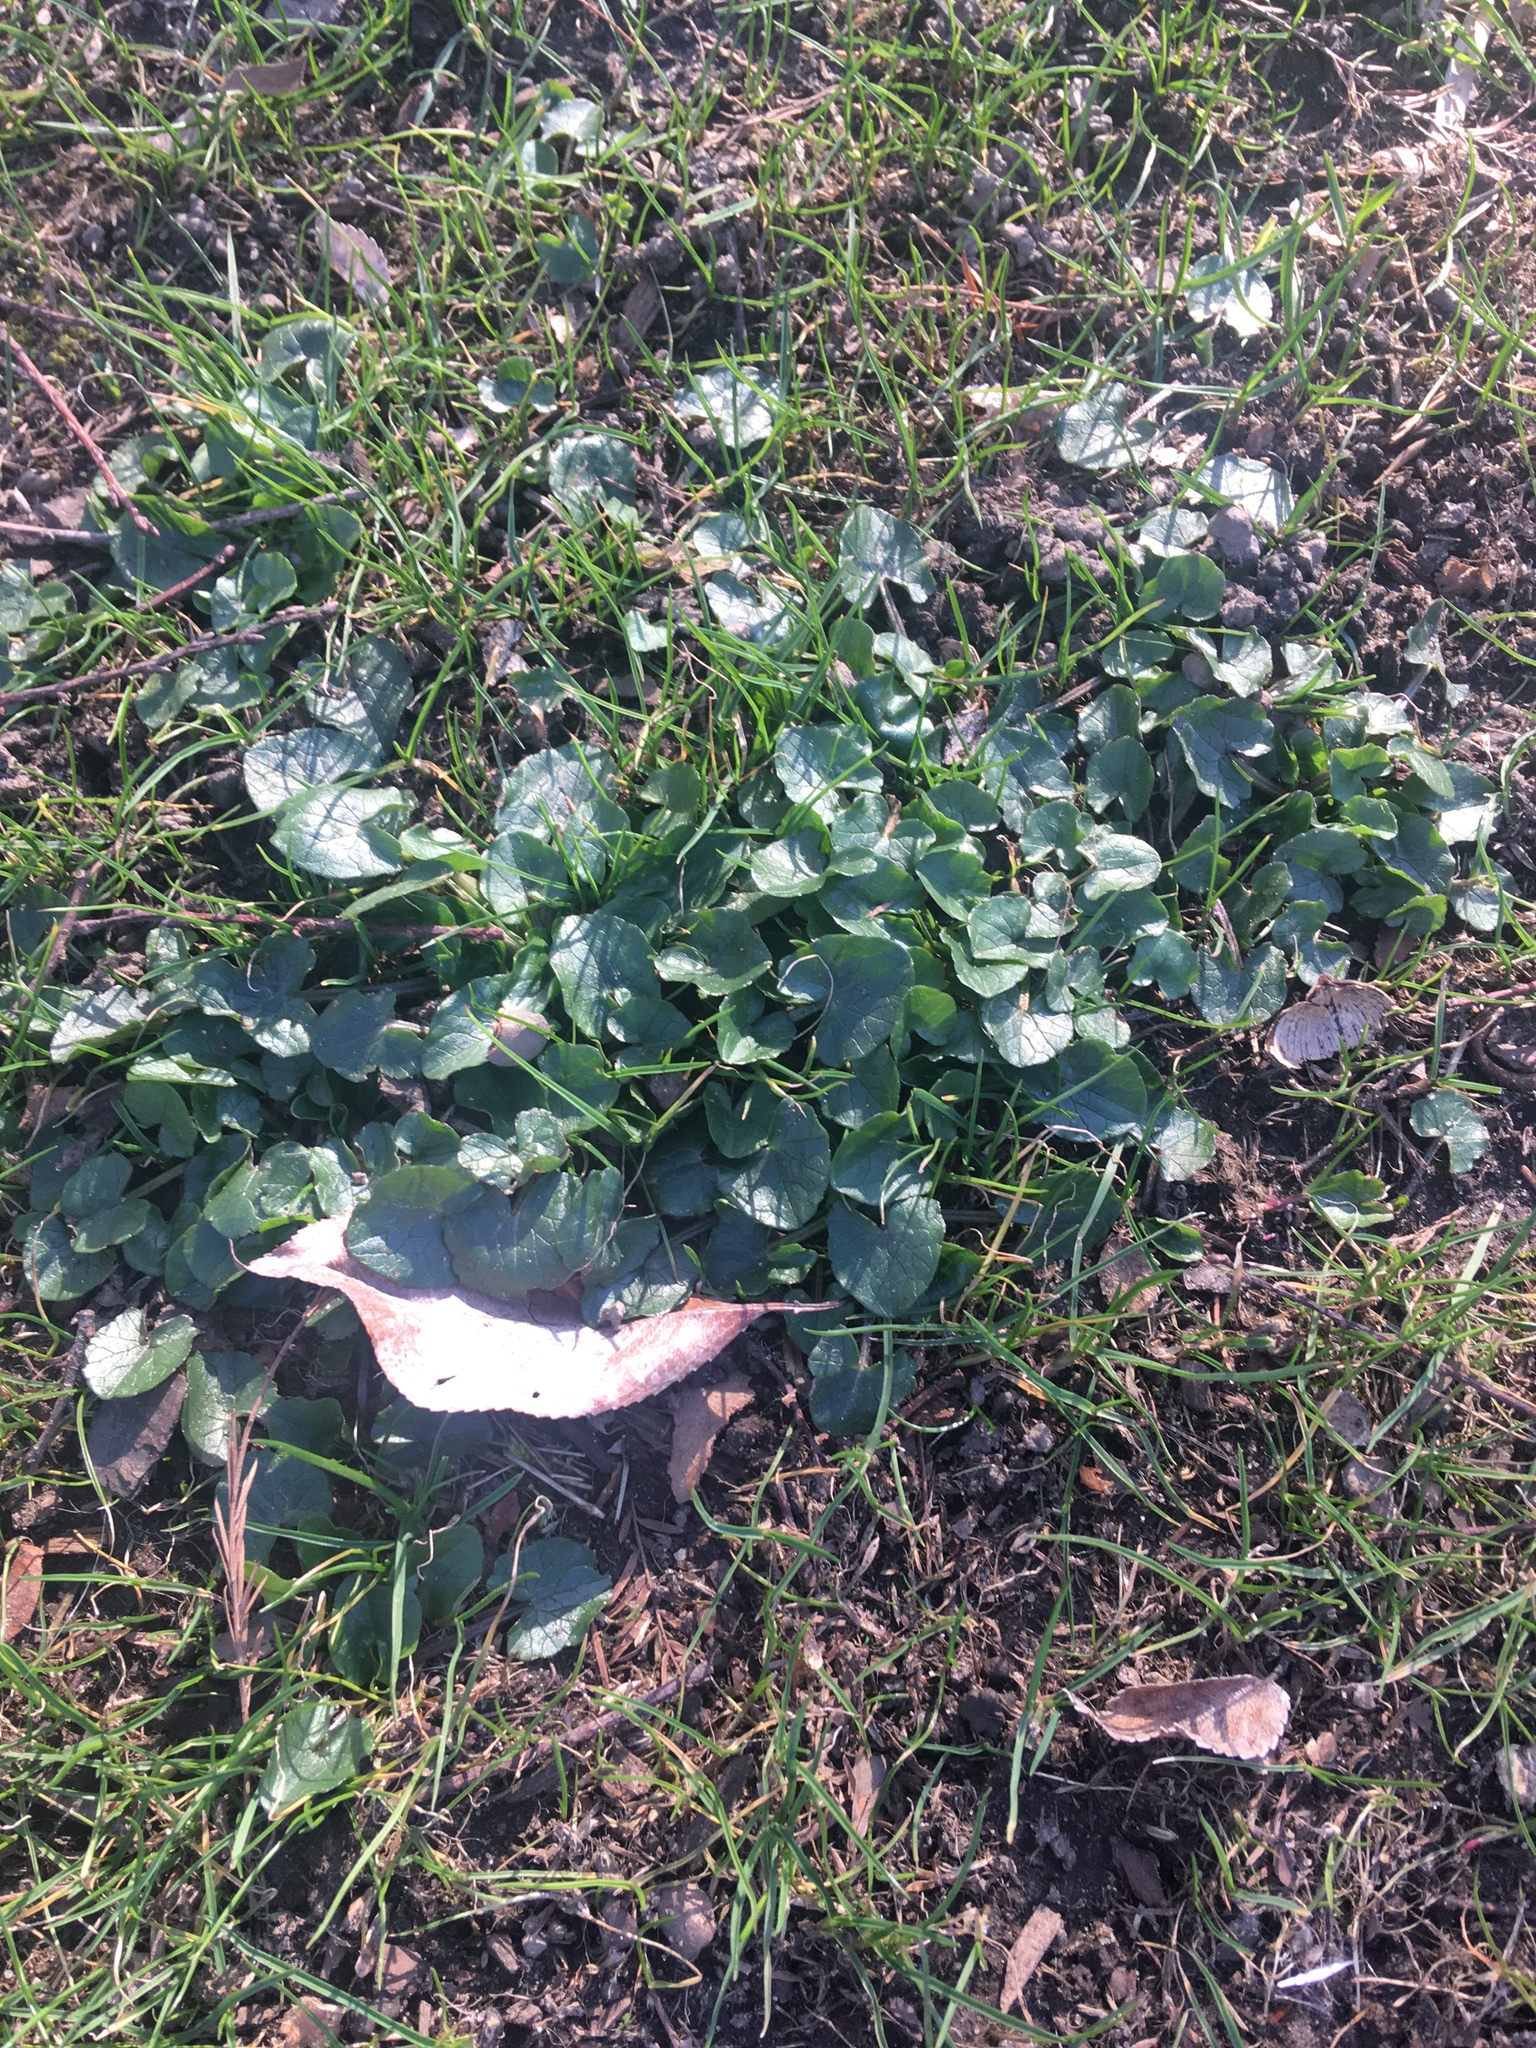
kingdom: Plantae
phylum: Tracheophyta
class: Magnoliopsida
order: Ranunculales
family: Ranunculaceae
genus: Ficaria
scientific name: Ficaria verna
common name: Lesser celandine
